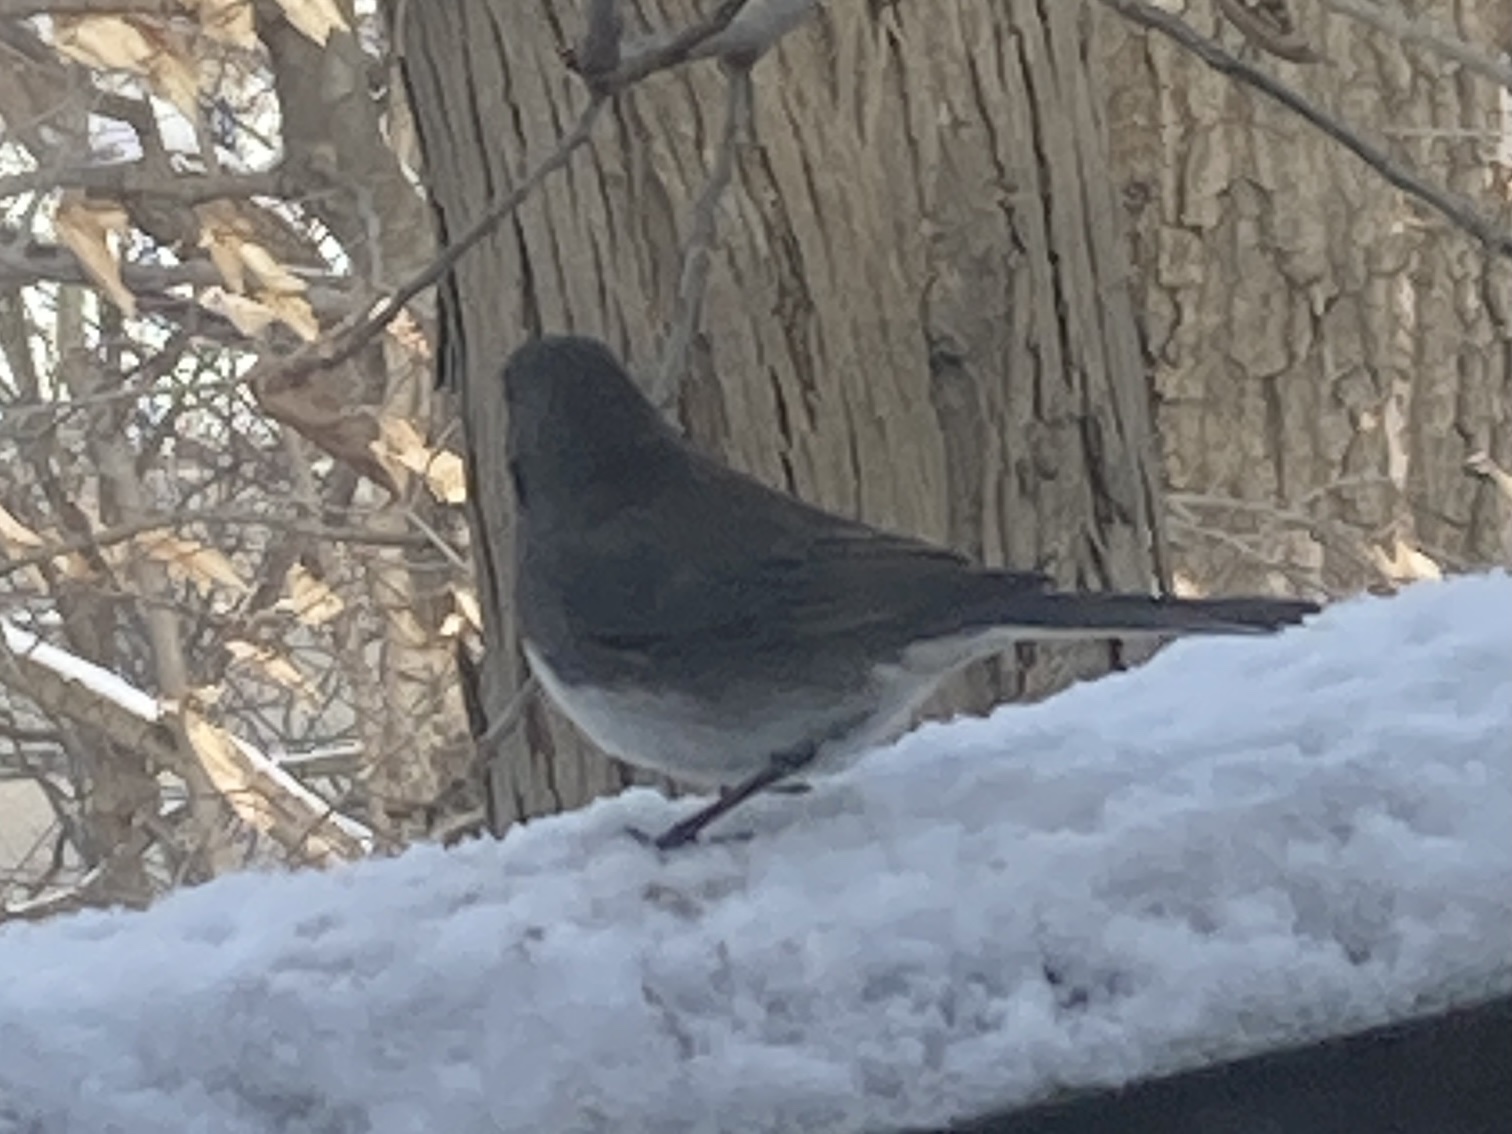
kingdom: Animalia
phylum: Chordata
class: Aves
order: Passeriformes
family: Passerellidae
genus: Junco
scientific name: Junco hyemalis
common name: Dark-eyed junco
